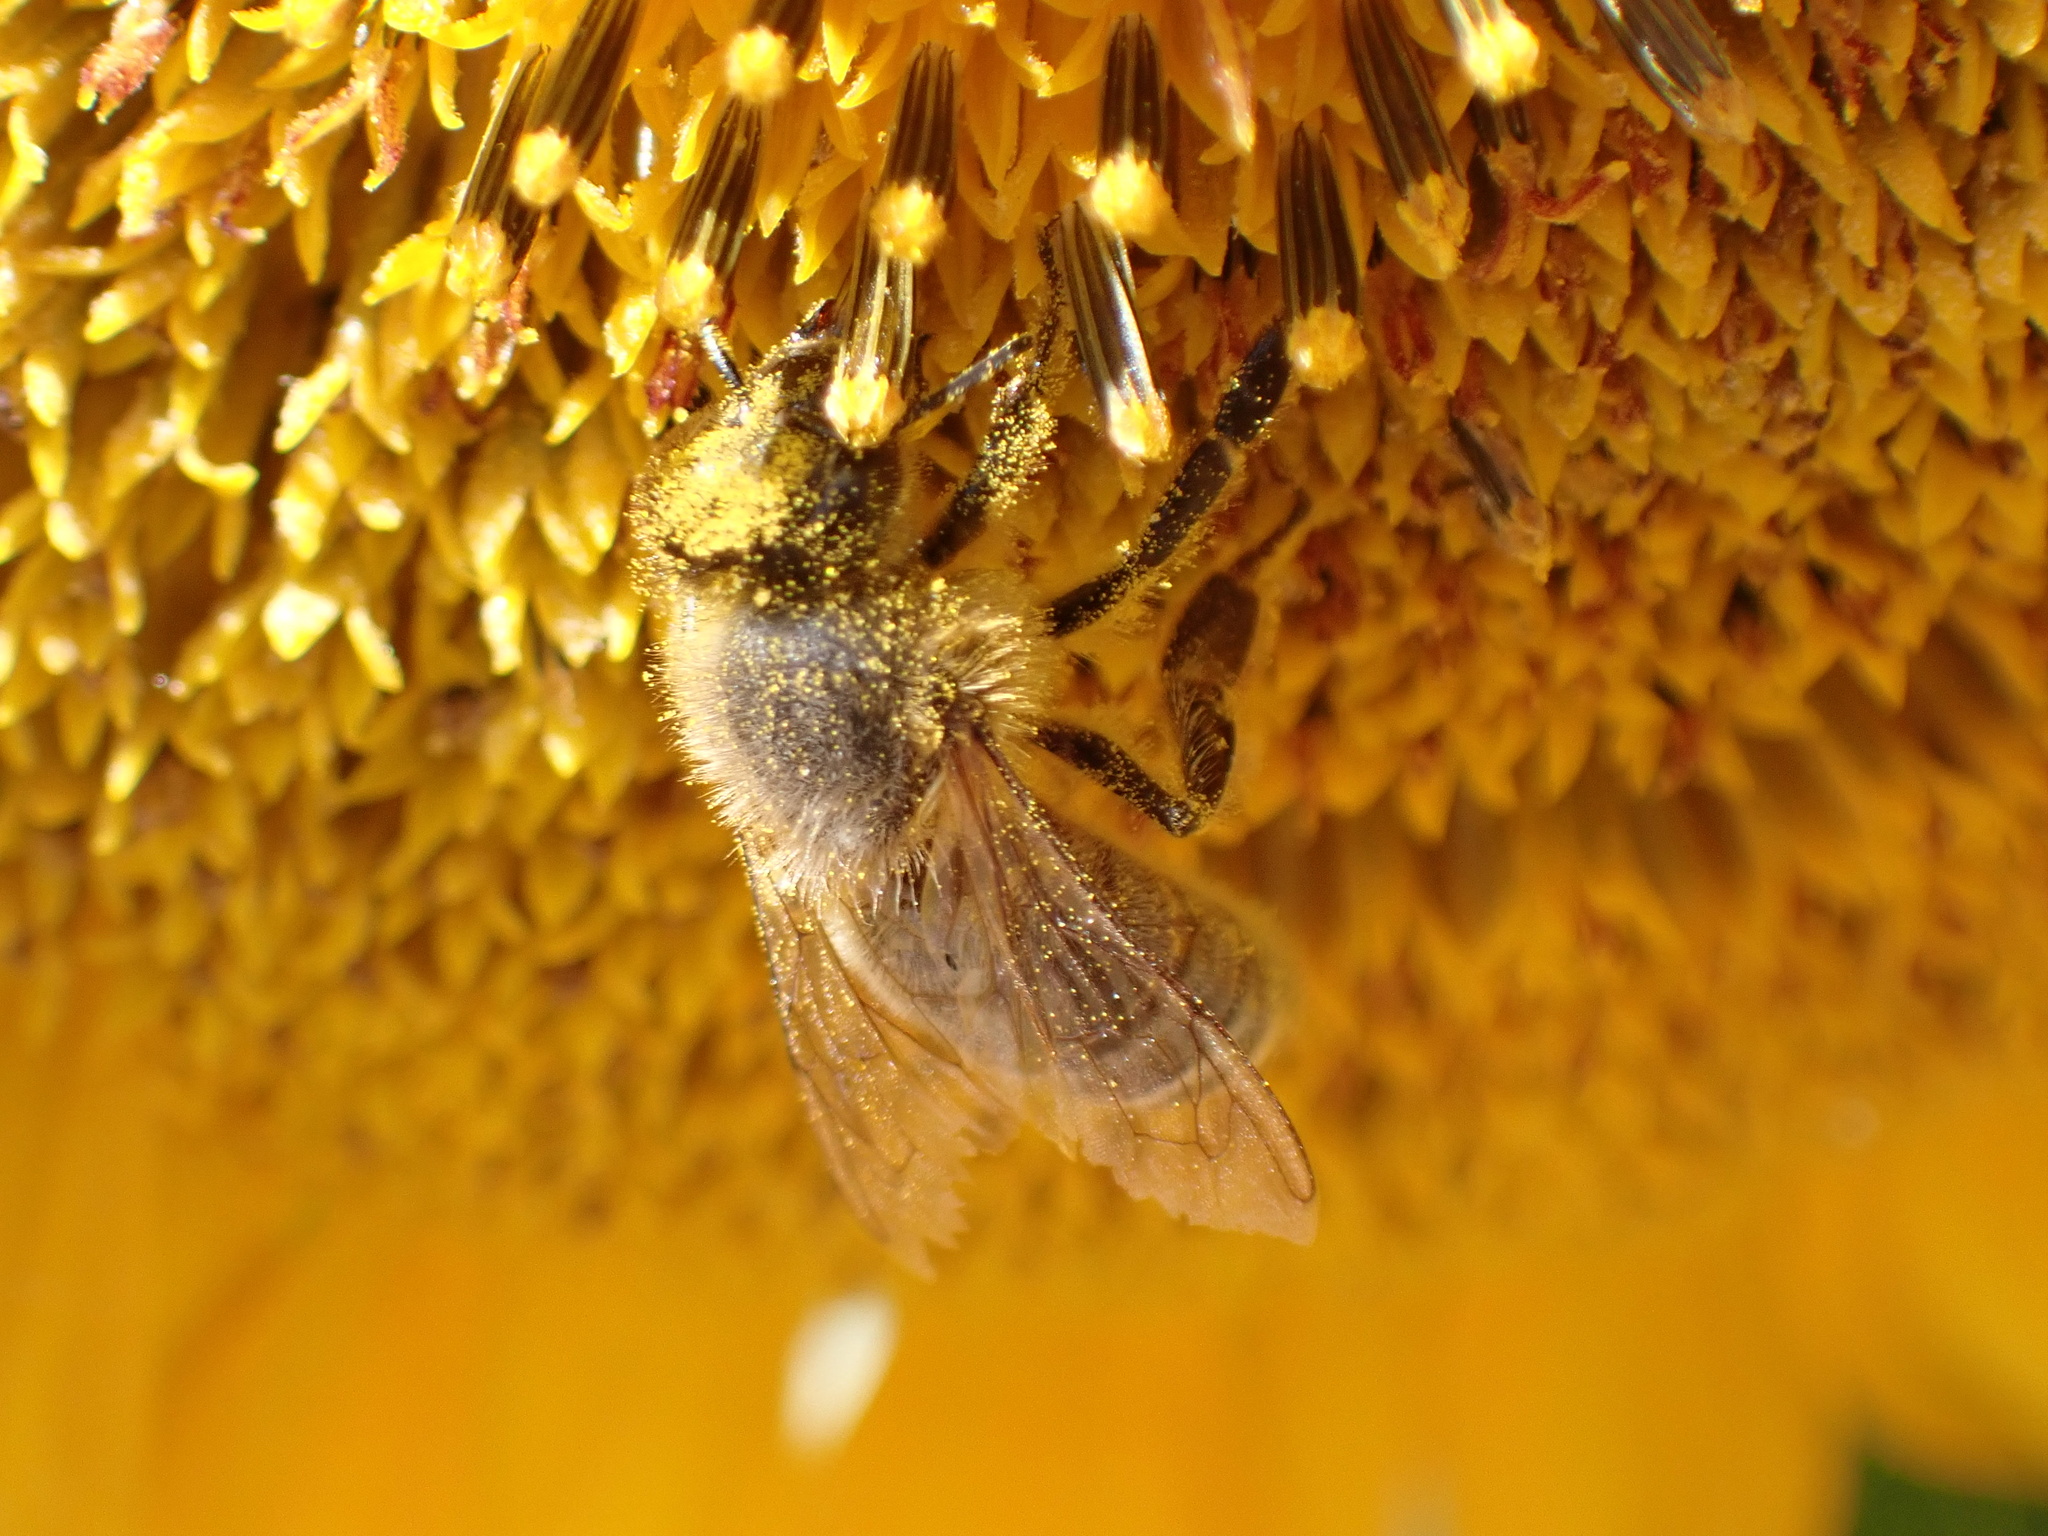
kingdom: Animalia
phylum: Arthropoda
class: Insecta
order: Hymenoptera
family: Apidae
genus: Apis
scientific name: Apis mellifera
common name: Honey bee
